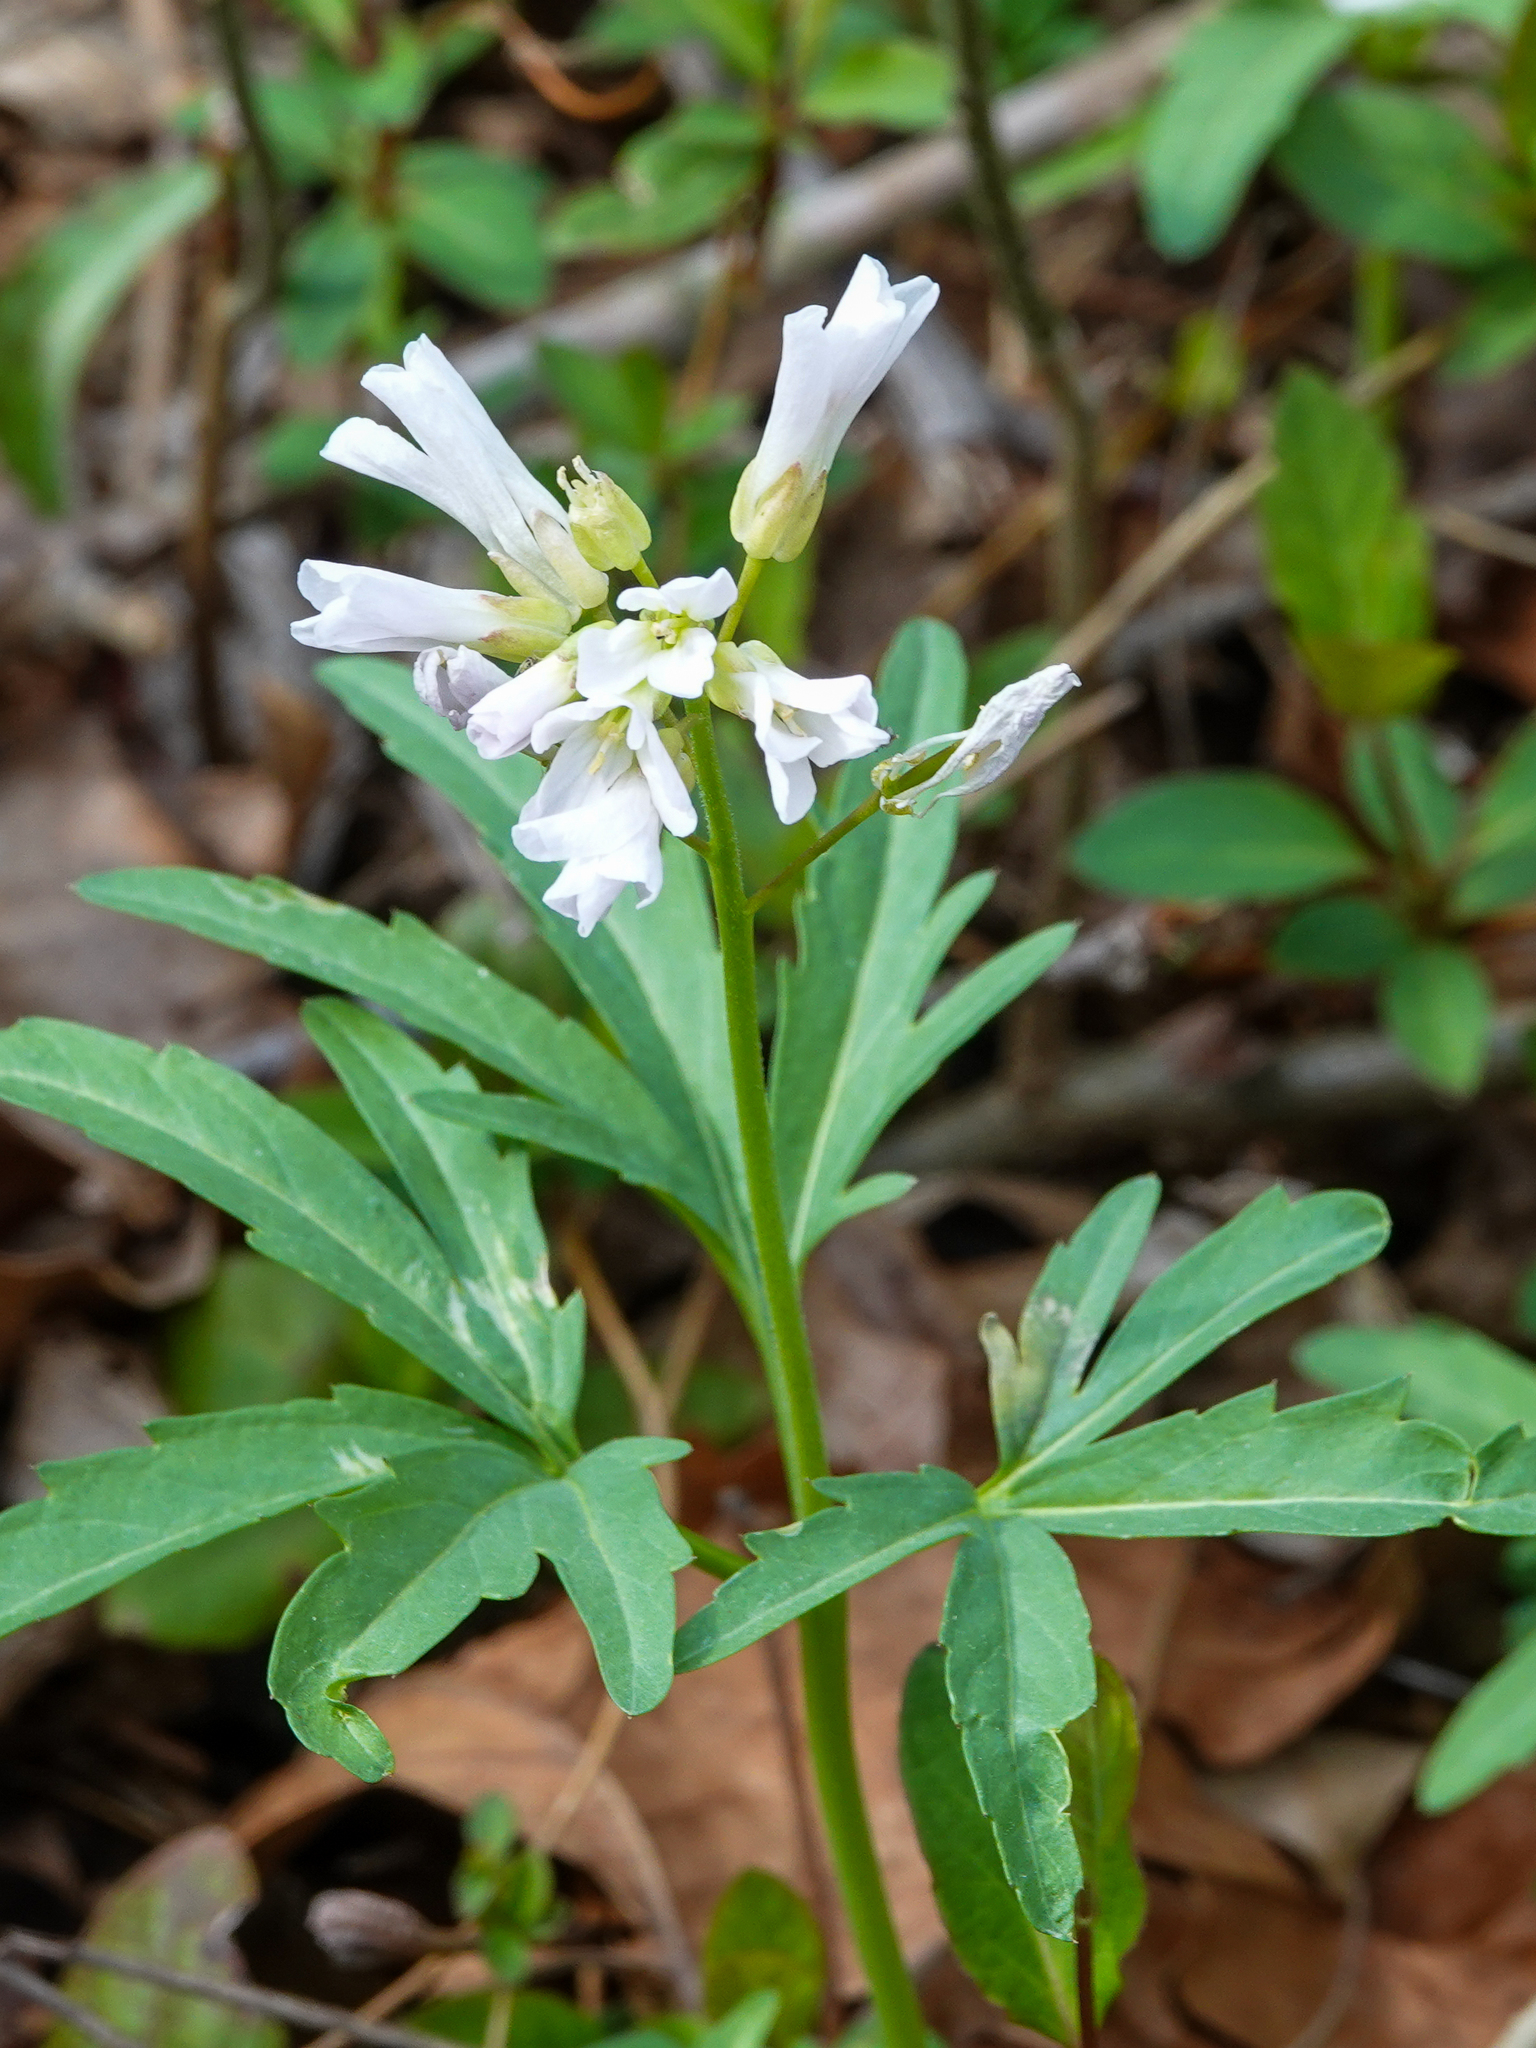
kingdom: Plantae
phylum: Tracheophyta
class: Magnoliopsida
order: Brassicales
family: Brassicaceae
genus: Cardamine
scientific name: Cardamine concatenata
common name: Cut-leaf toothcup
